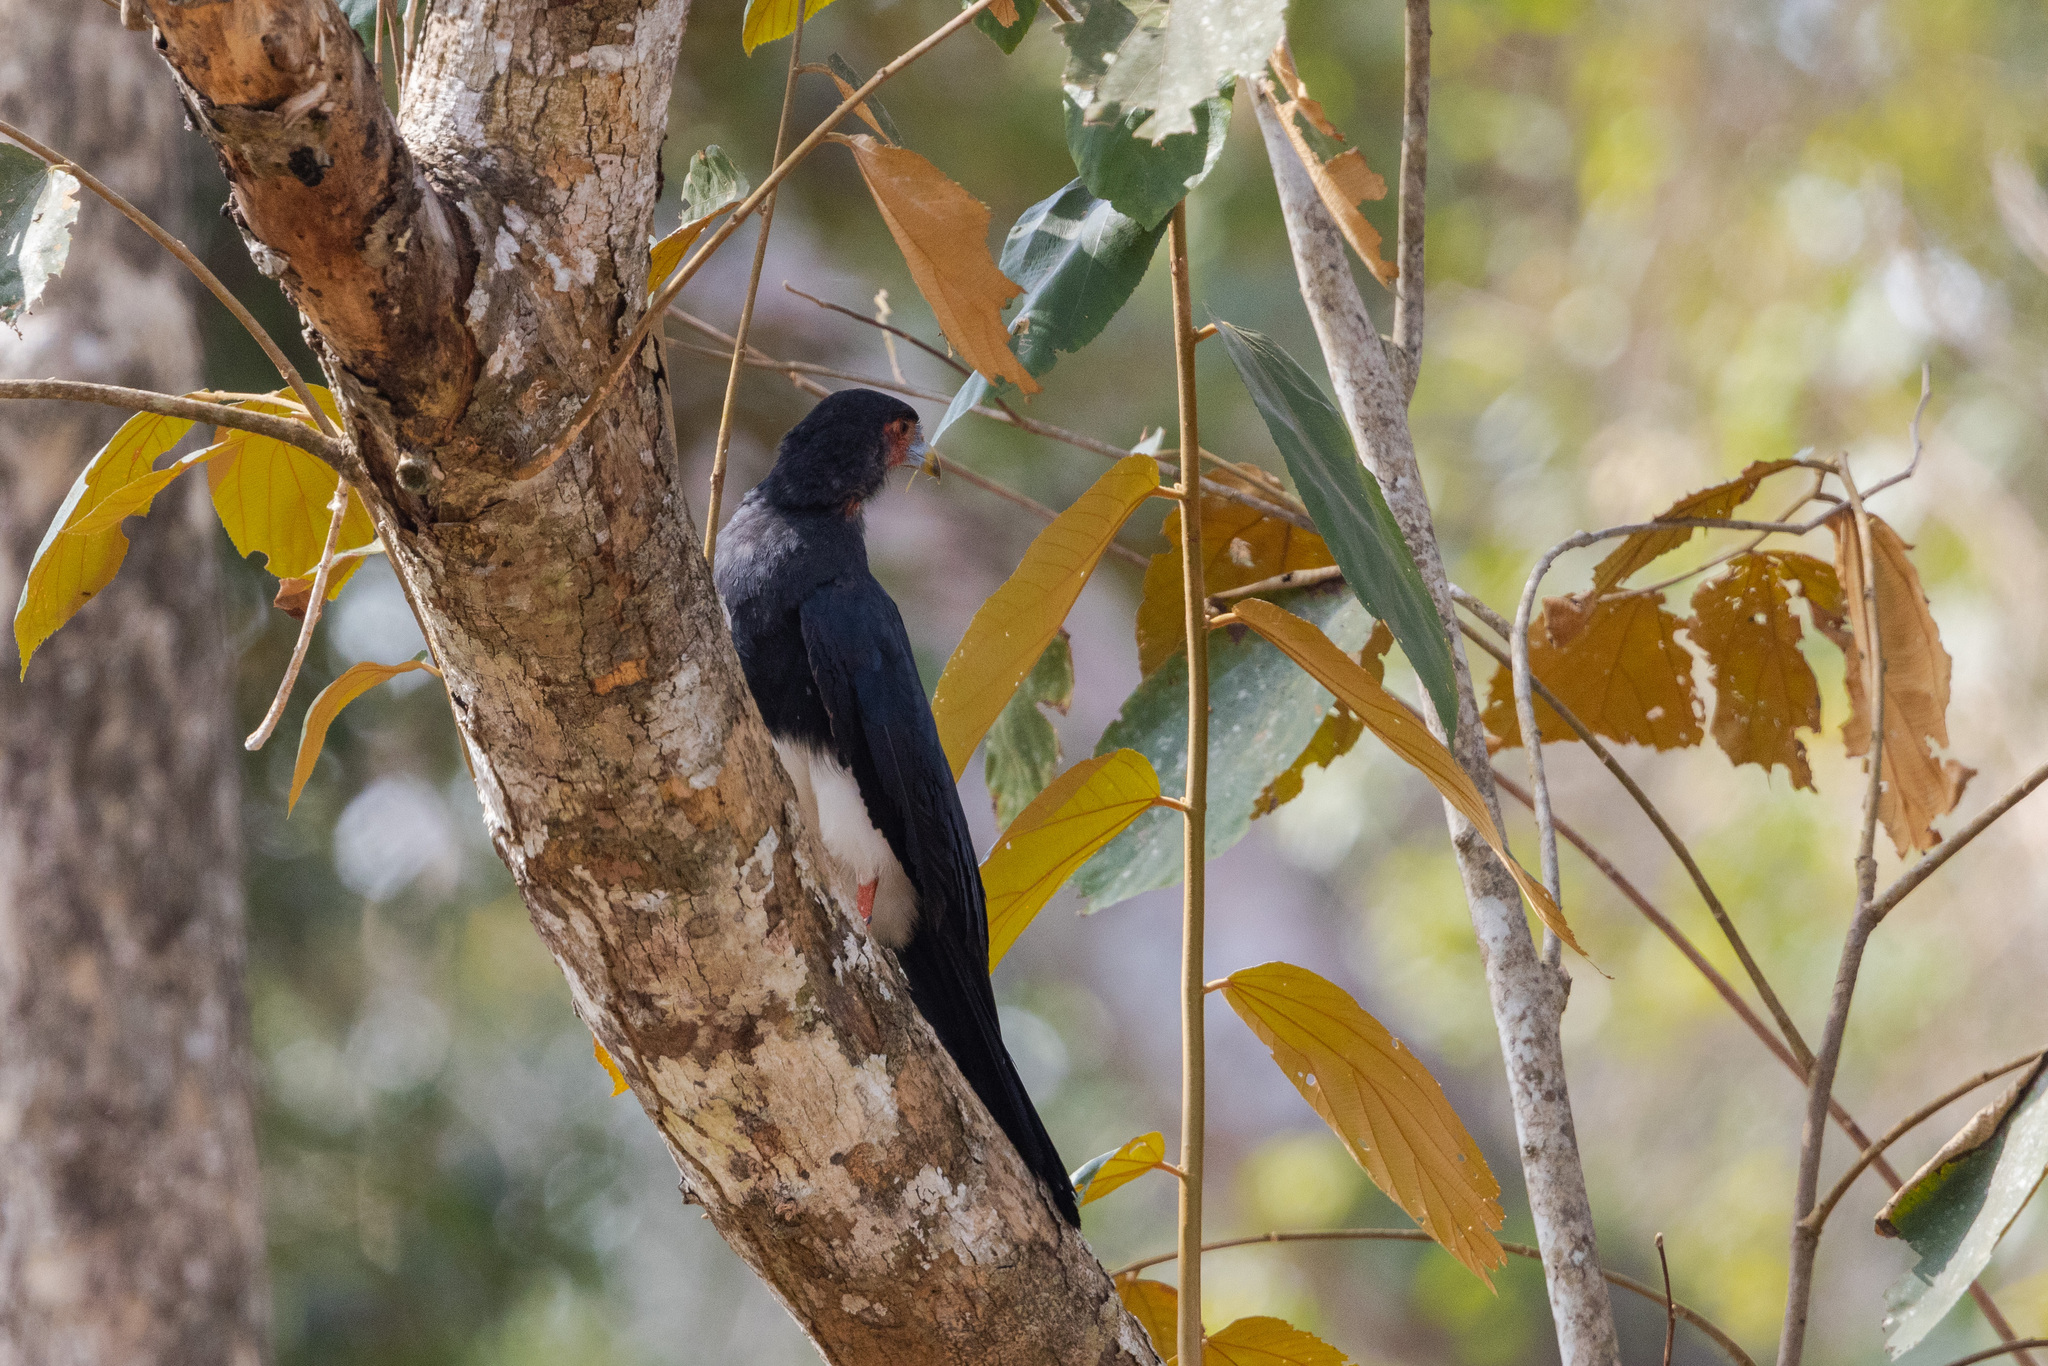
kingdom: Animalia
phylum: Chordata
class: Aves
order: Falconiformes
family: Falconidae
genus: Ibycter
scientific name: Ibycter americanus
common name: Red-throated caracara
